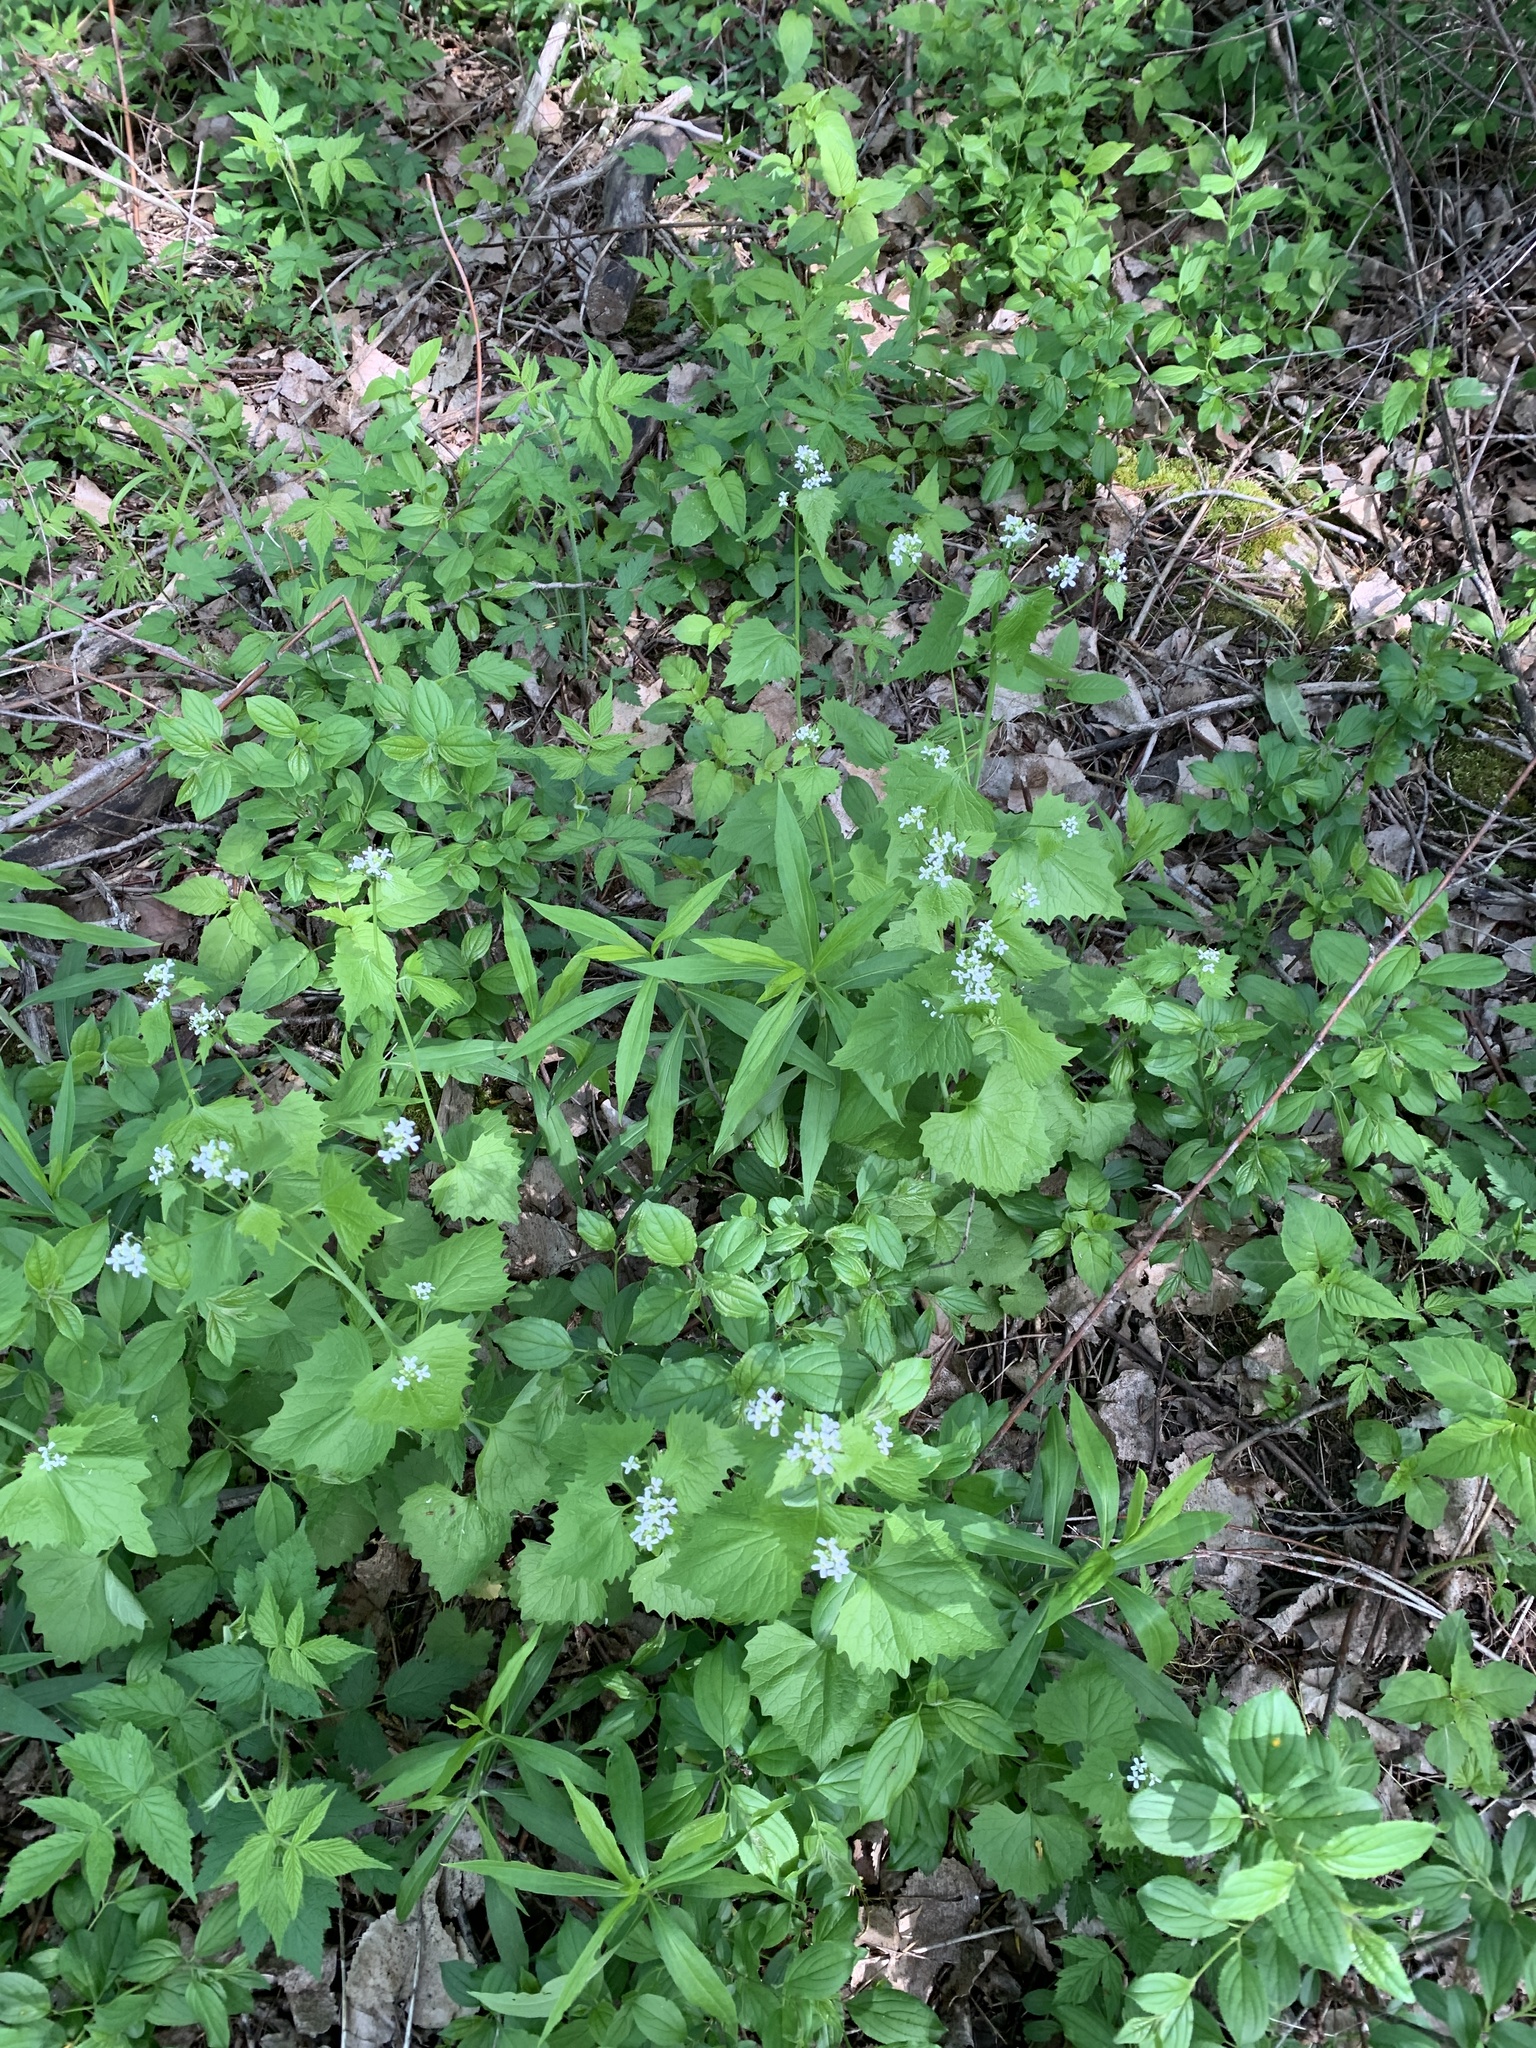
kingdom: Plantae
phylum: Tracheophyta
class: Magnoliopsida
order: Brassicales
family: Brassicaceae
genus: Alliaria
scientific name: Alliaria petiolata
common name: Garlic mustard
